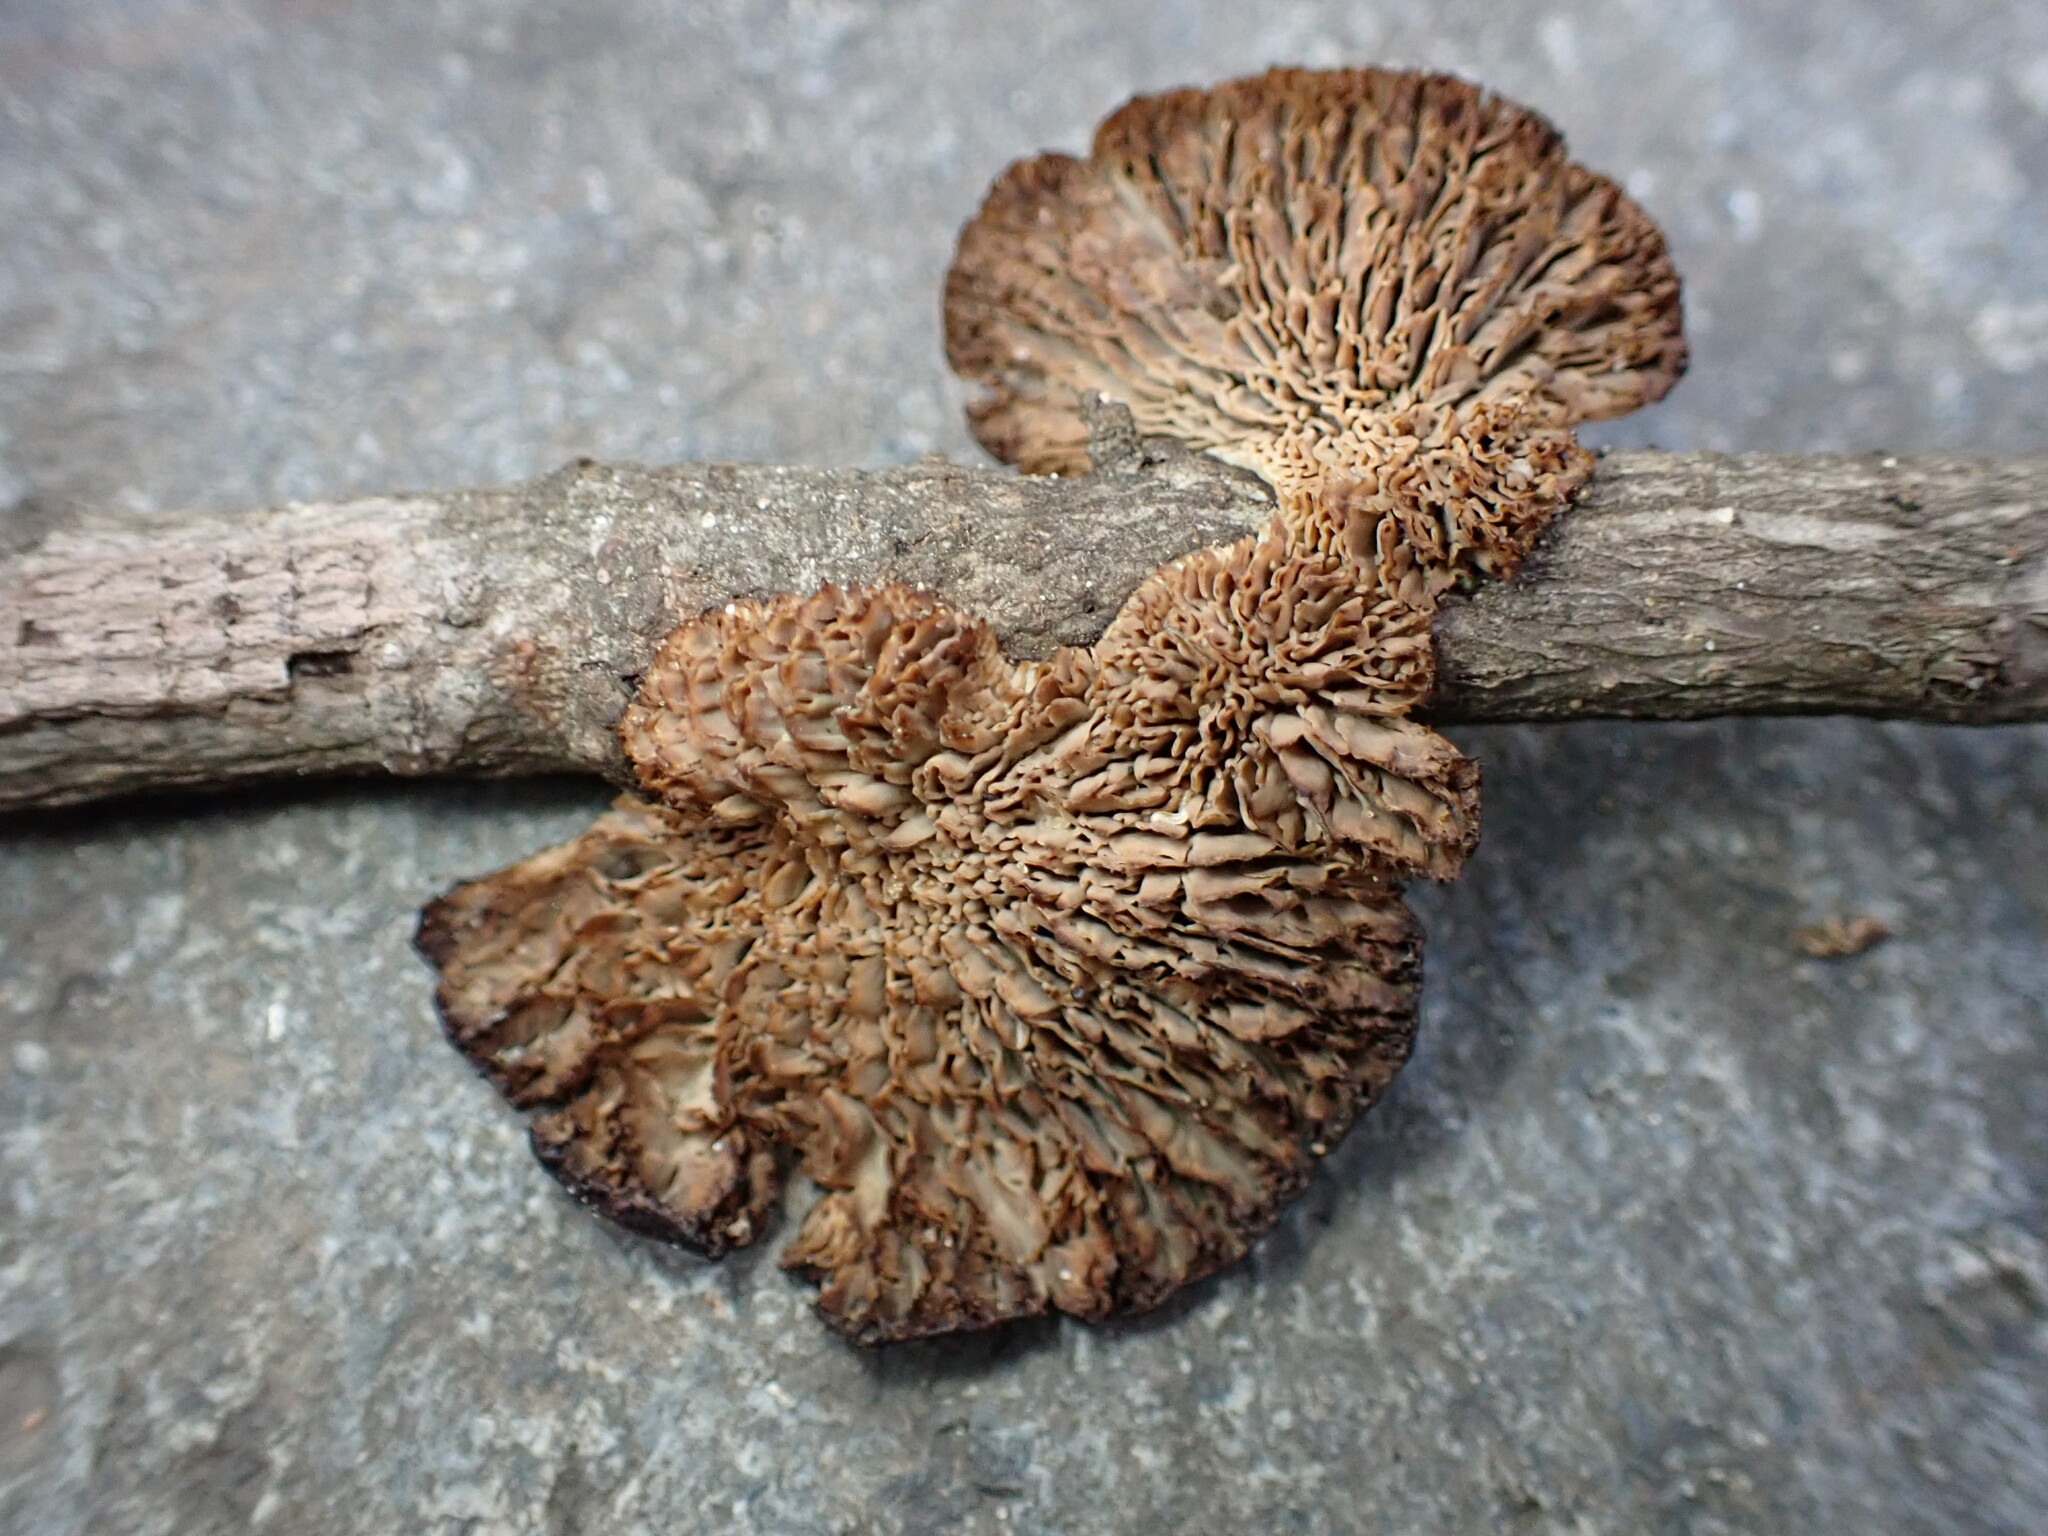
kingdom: Fungi
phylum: Basidiomycota
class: Agaricomycetes
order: Polyporales
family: Polyporaceae
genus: Daedaleopsis
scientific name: Daedaleopsis confragosa
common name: Blushing bracket
